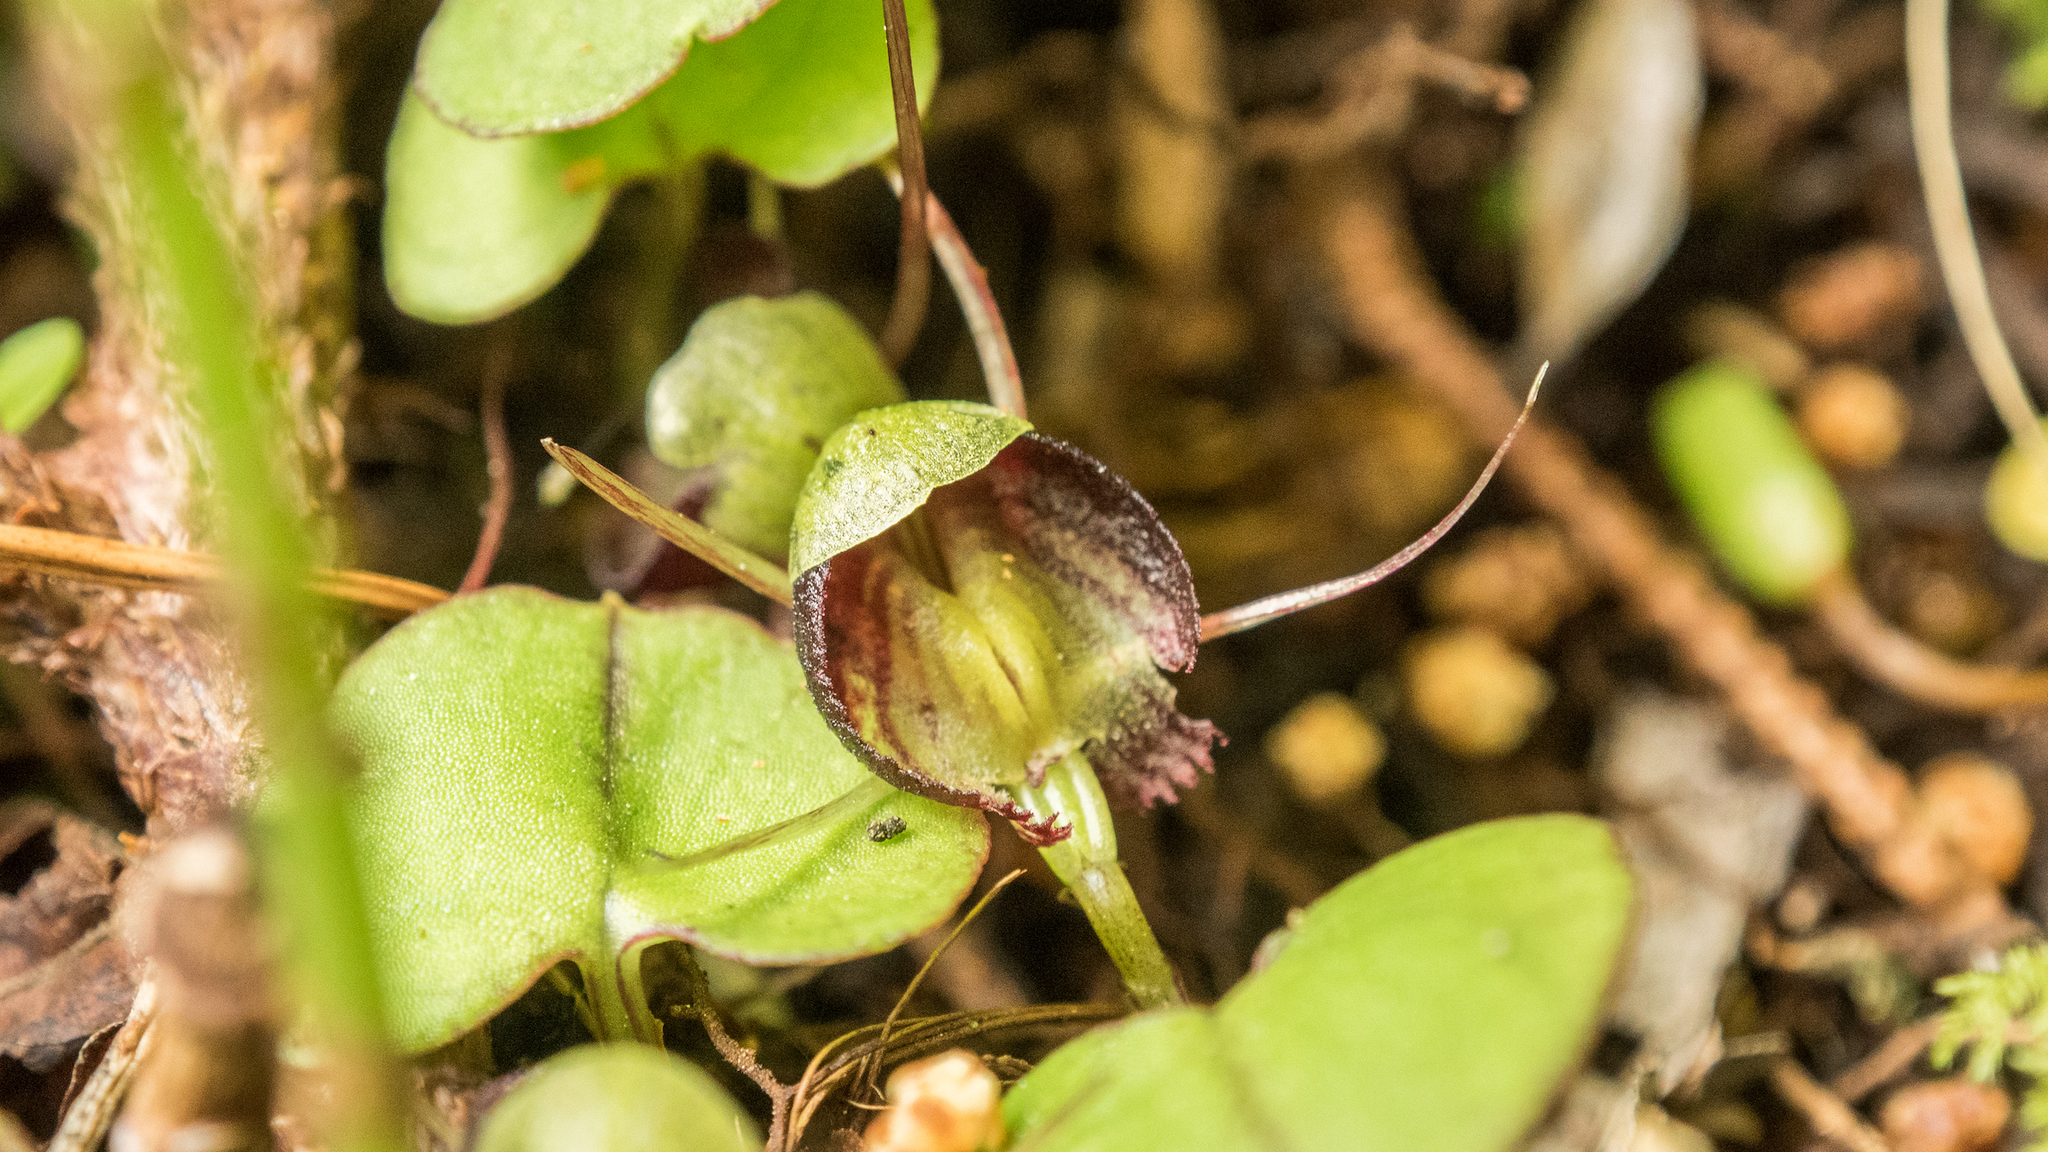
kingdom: Plantae
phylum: Tracheophyta
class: Liliopsida
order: Asparagales
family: Orchidaceae
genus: Corybas
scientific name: Corybas trilobus
